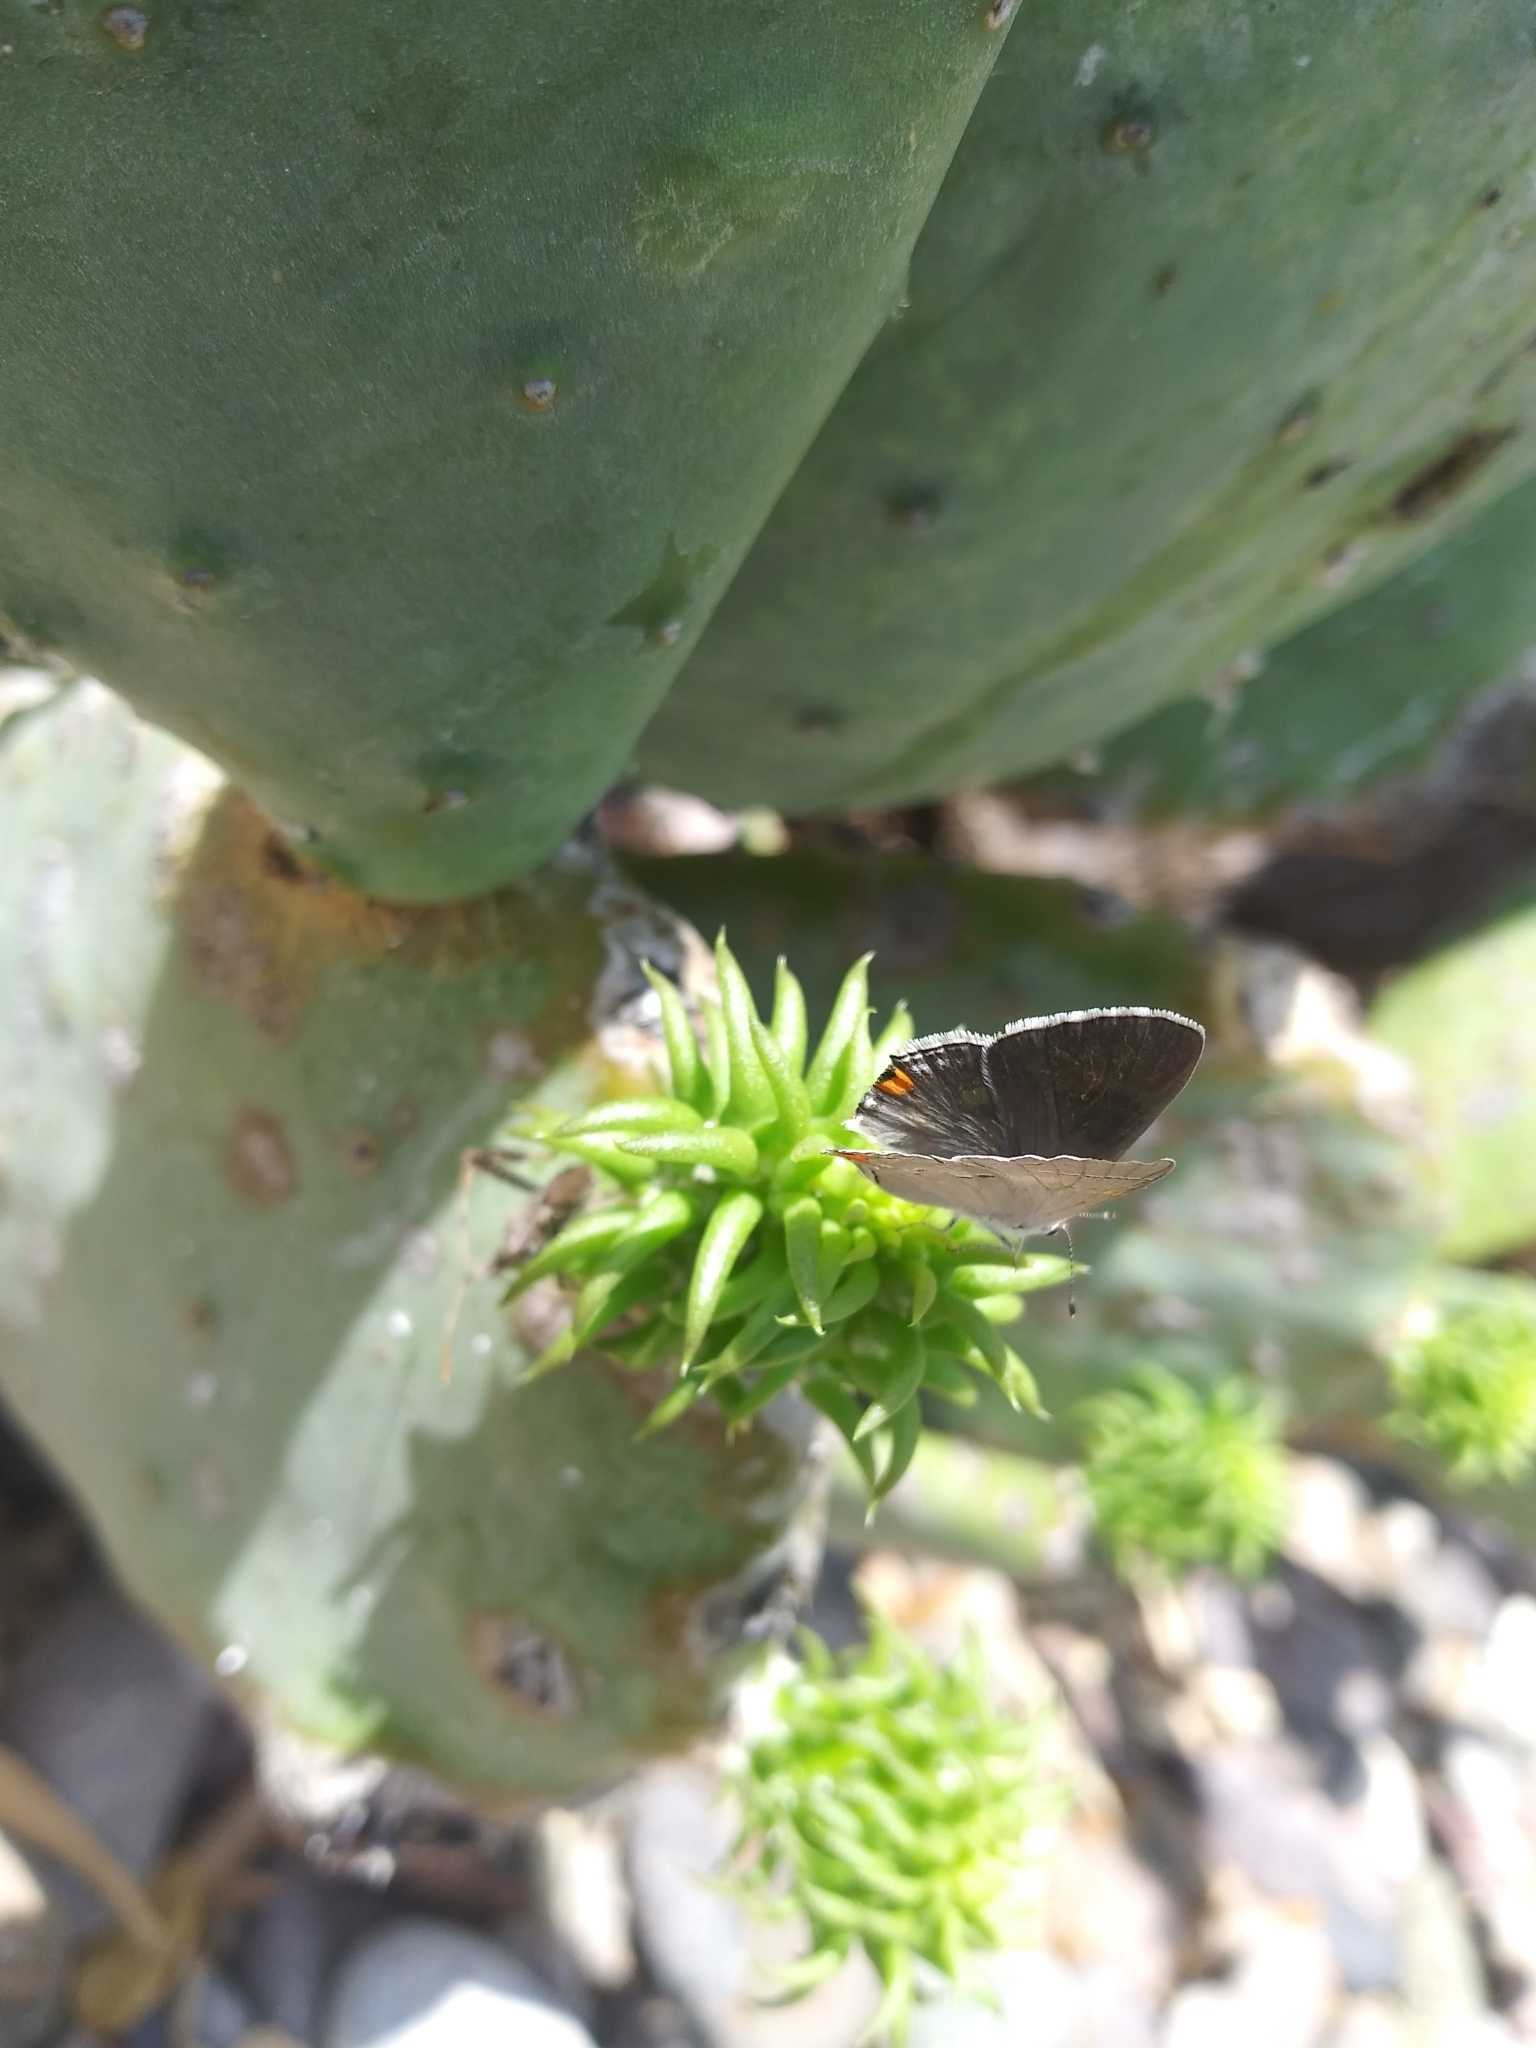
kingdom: Animalia
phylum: Arthropoda
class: Insecta
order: Lepidoptera
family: Lycaenidae
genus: Strymon
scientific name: Strymon melinus
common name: Gray hairstreak
